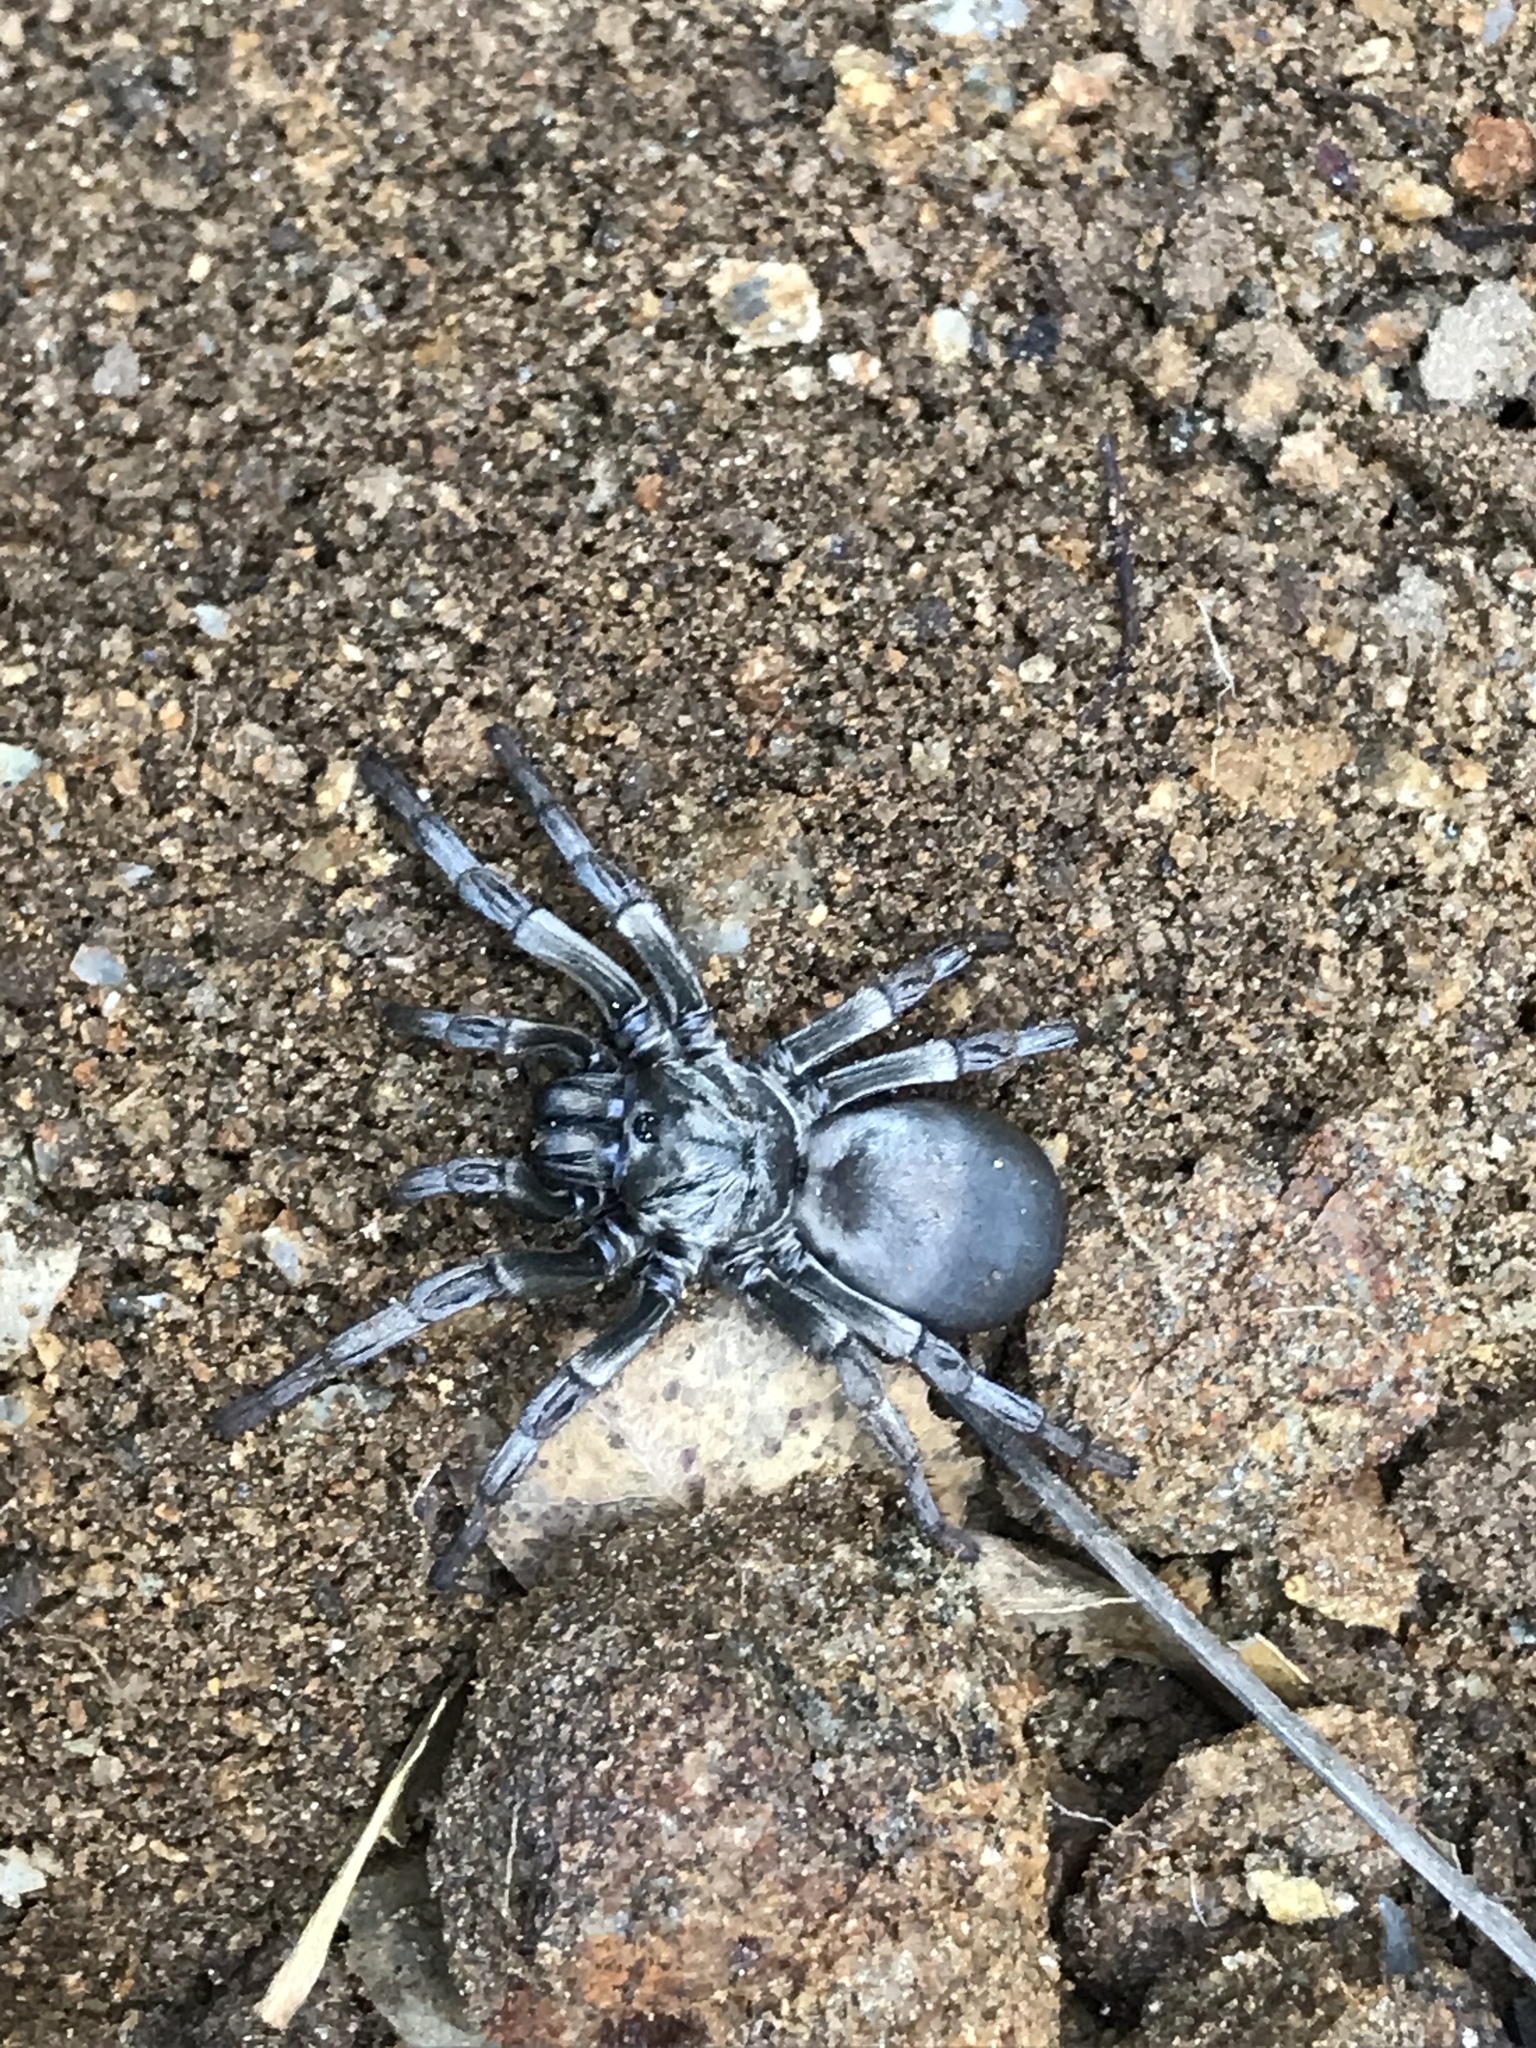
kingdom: Animalia
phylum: Arthropoda
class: Arachnida
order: Araneae
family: Nemesiidae
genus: Calisoga
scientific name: Calisoga longitarsis
